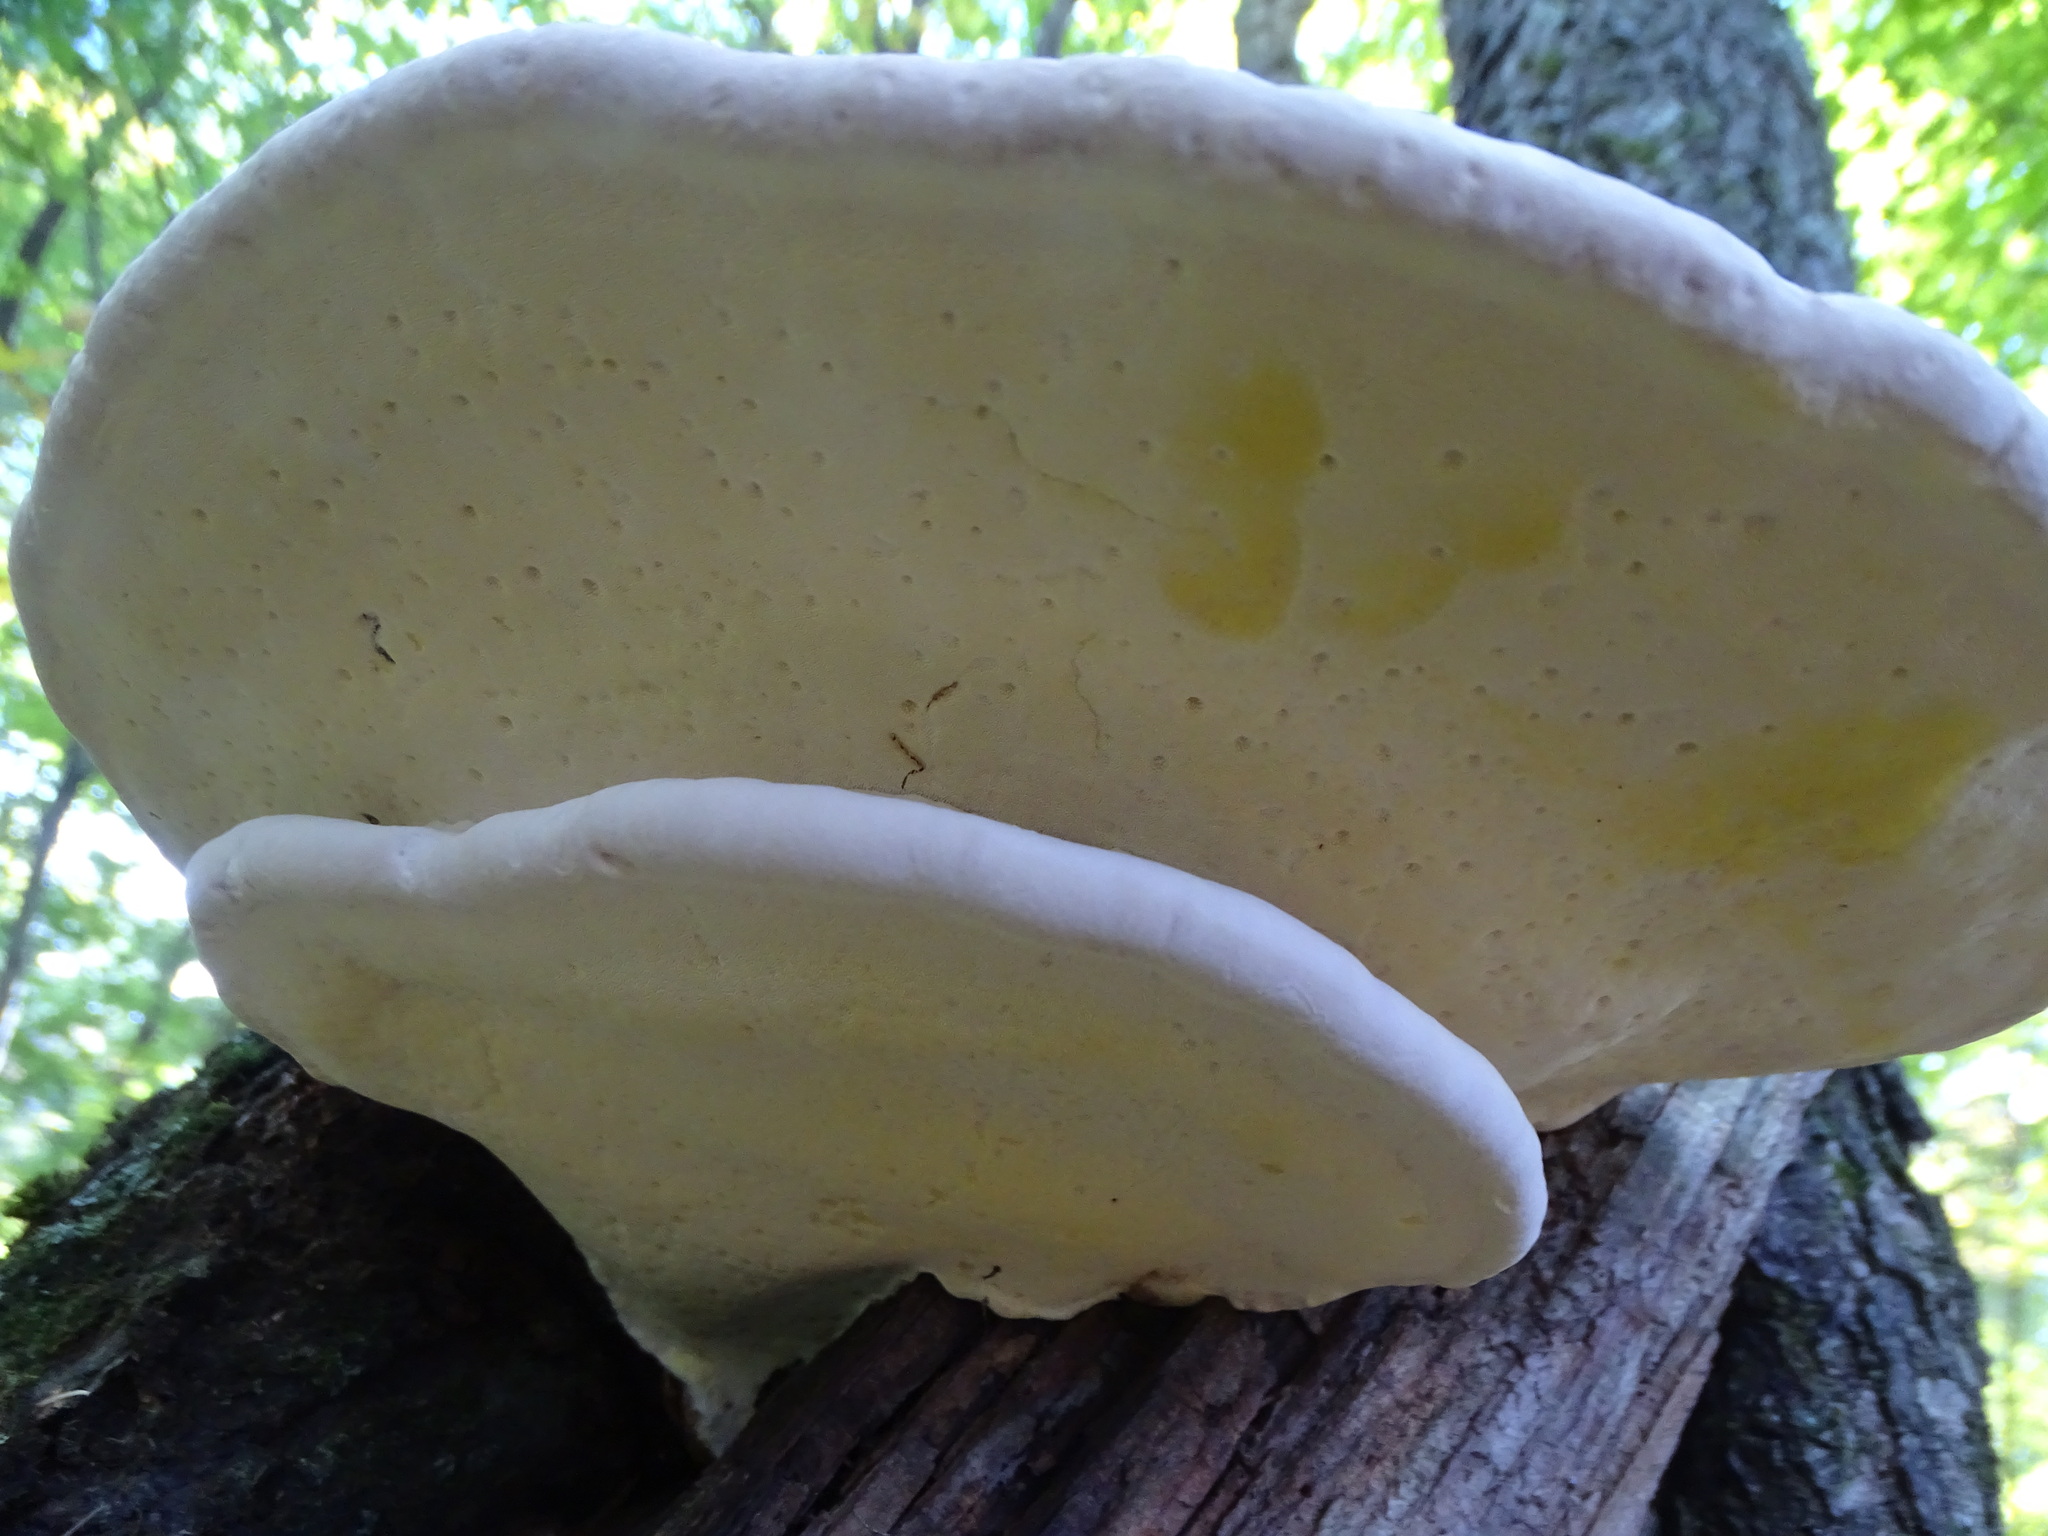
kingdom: Fungi
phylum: Basidiomycota
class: Agaricomycetes
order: Polyporales
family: Fomitopsidaceae
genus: Fomitopsis
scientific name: Fomitopsis mounceae
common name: Northern red belt
